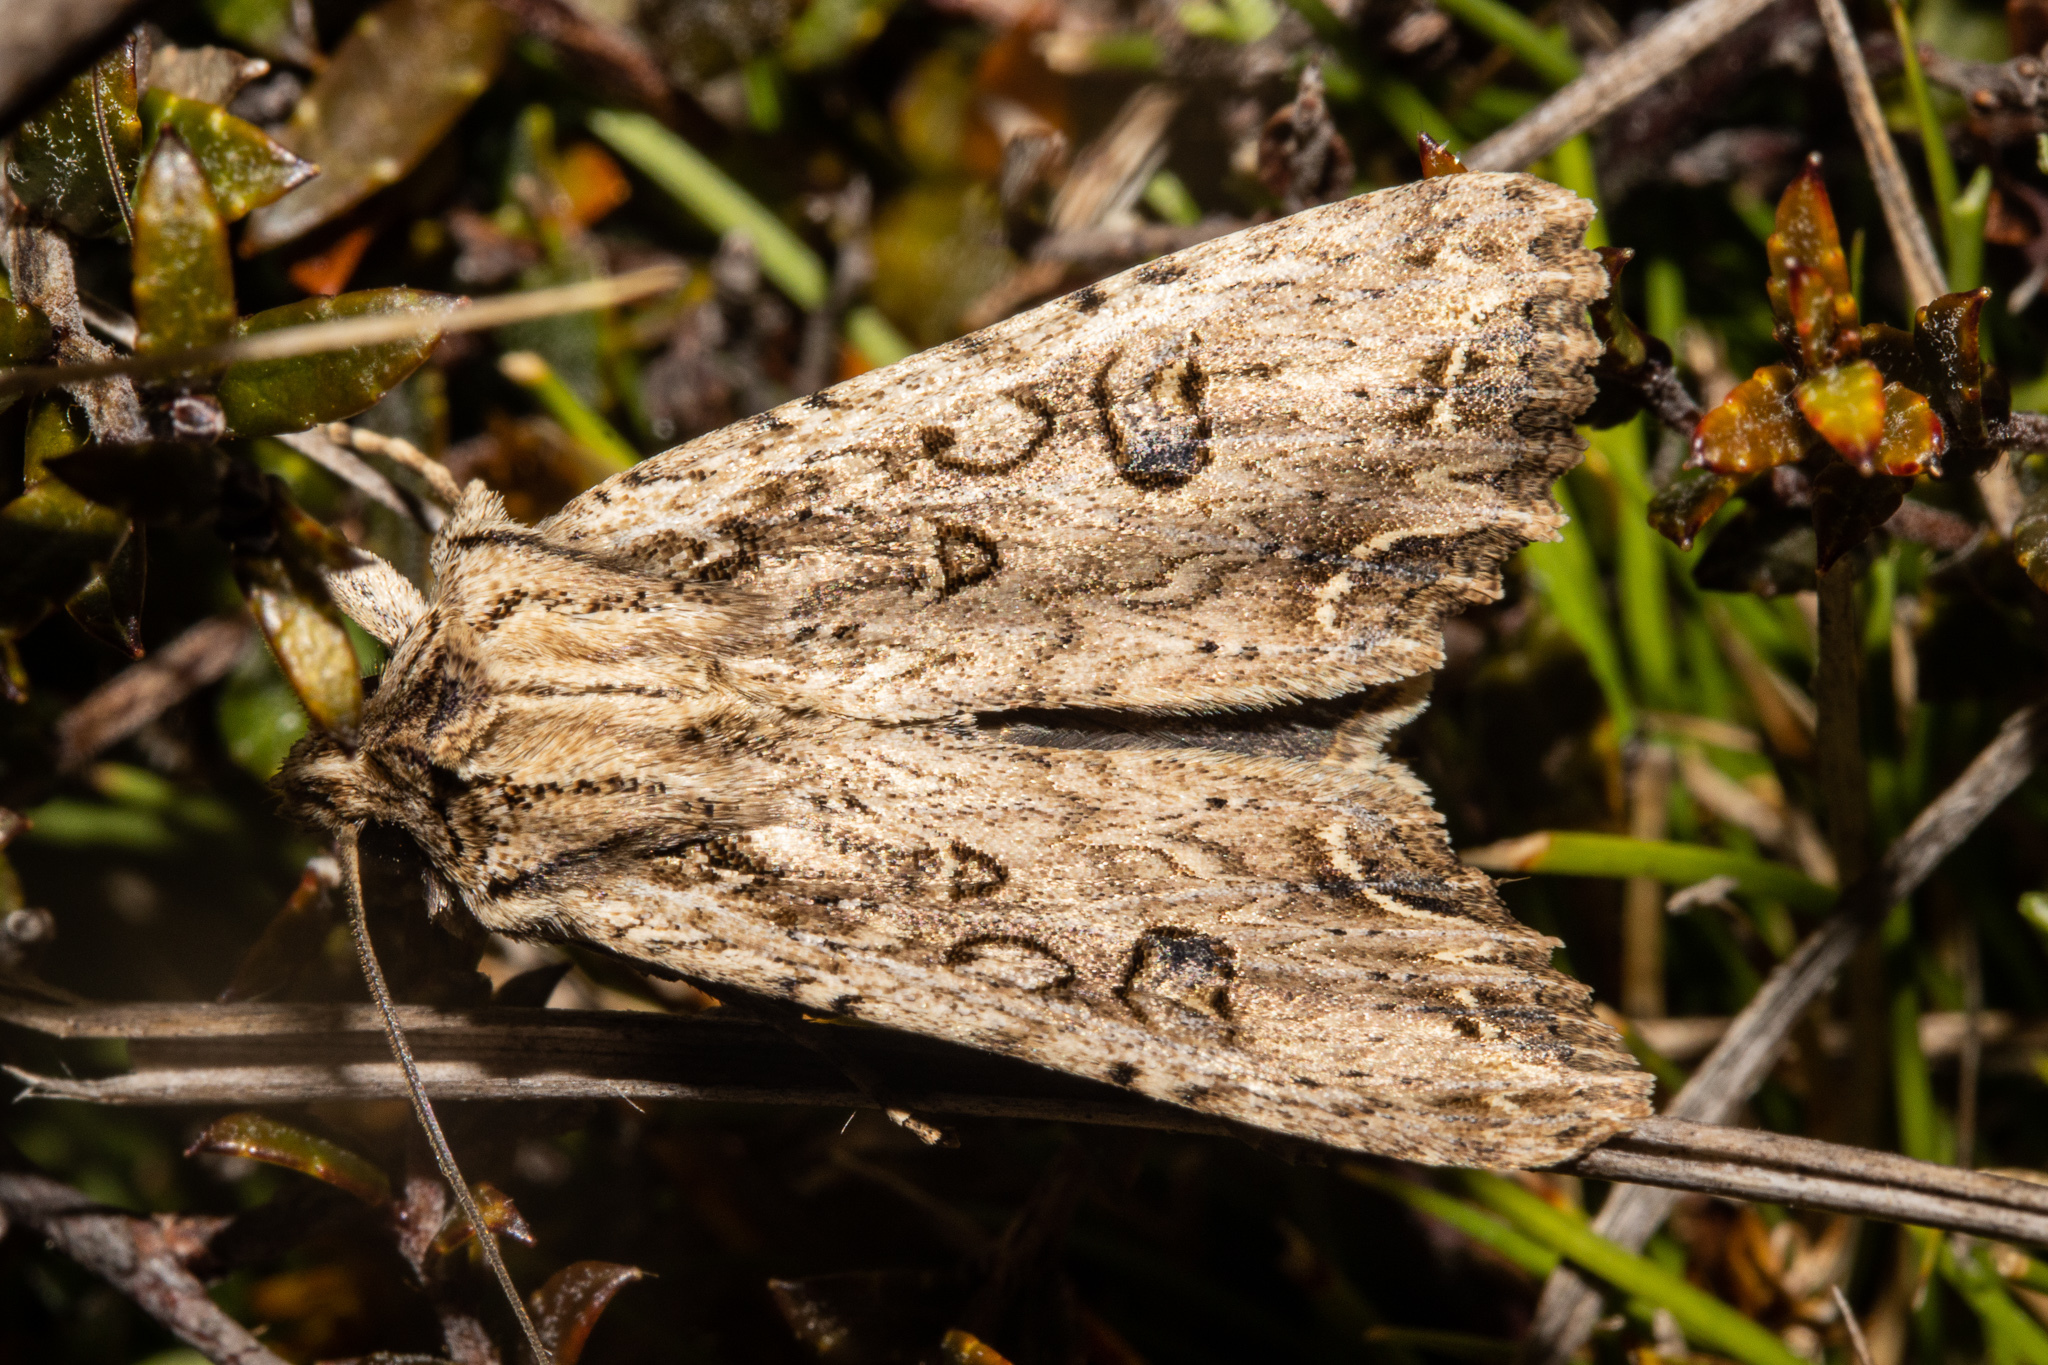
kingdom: Animalia
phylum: Arthropoda
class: Insecta
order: Lepidoptera
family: Noctuidae
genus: Ichneutica
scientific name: Ichneutica lignana
